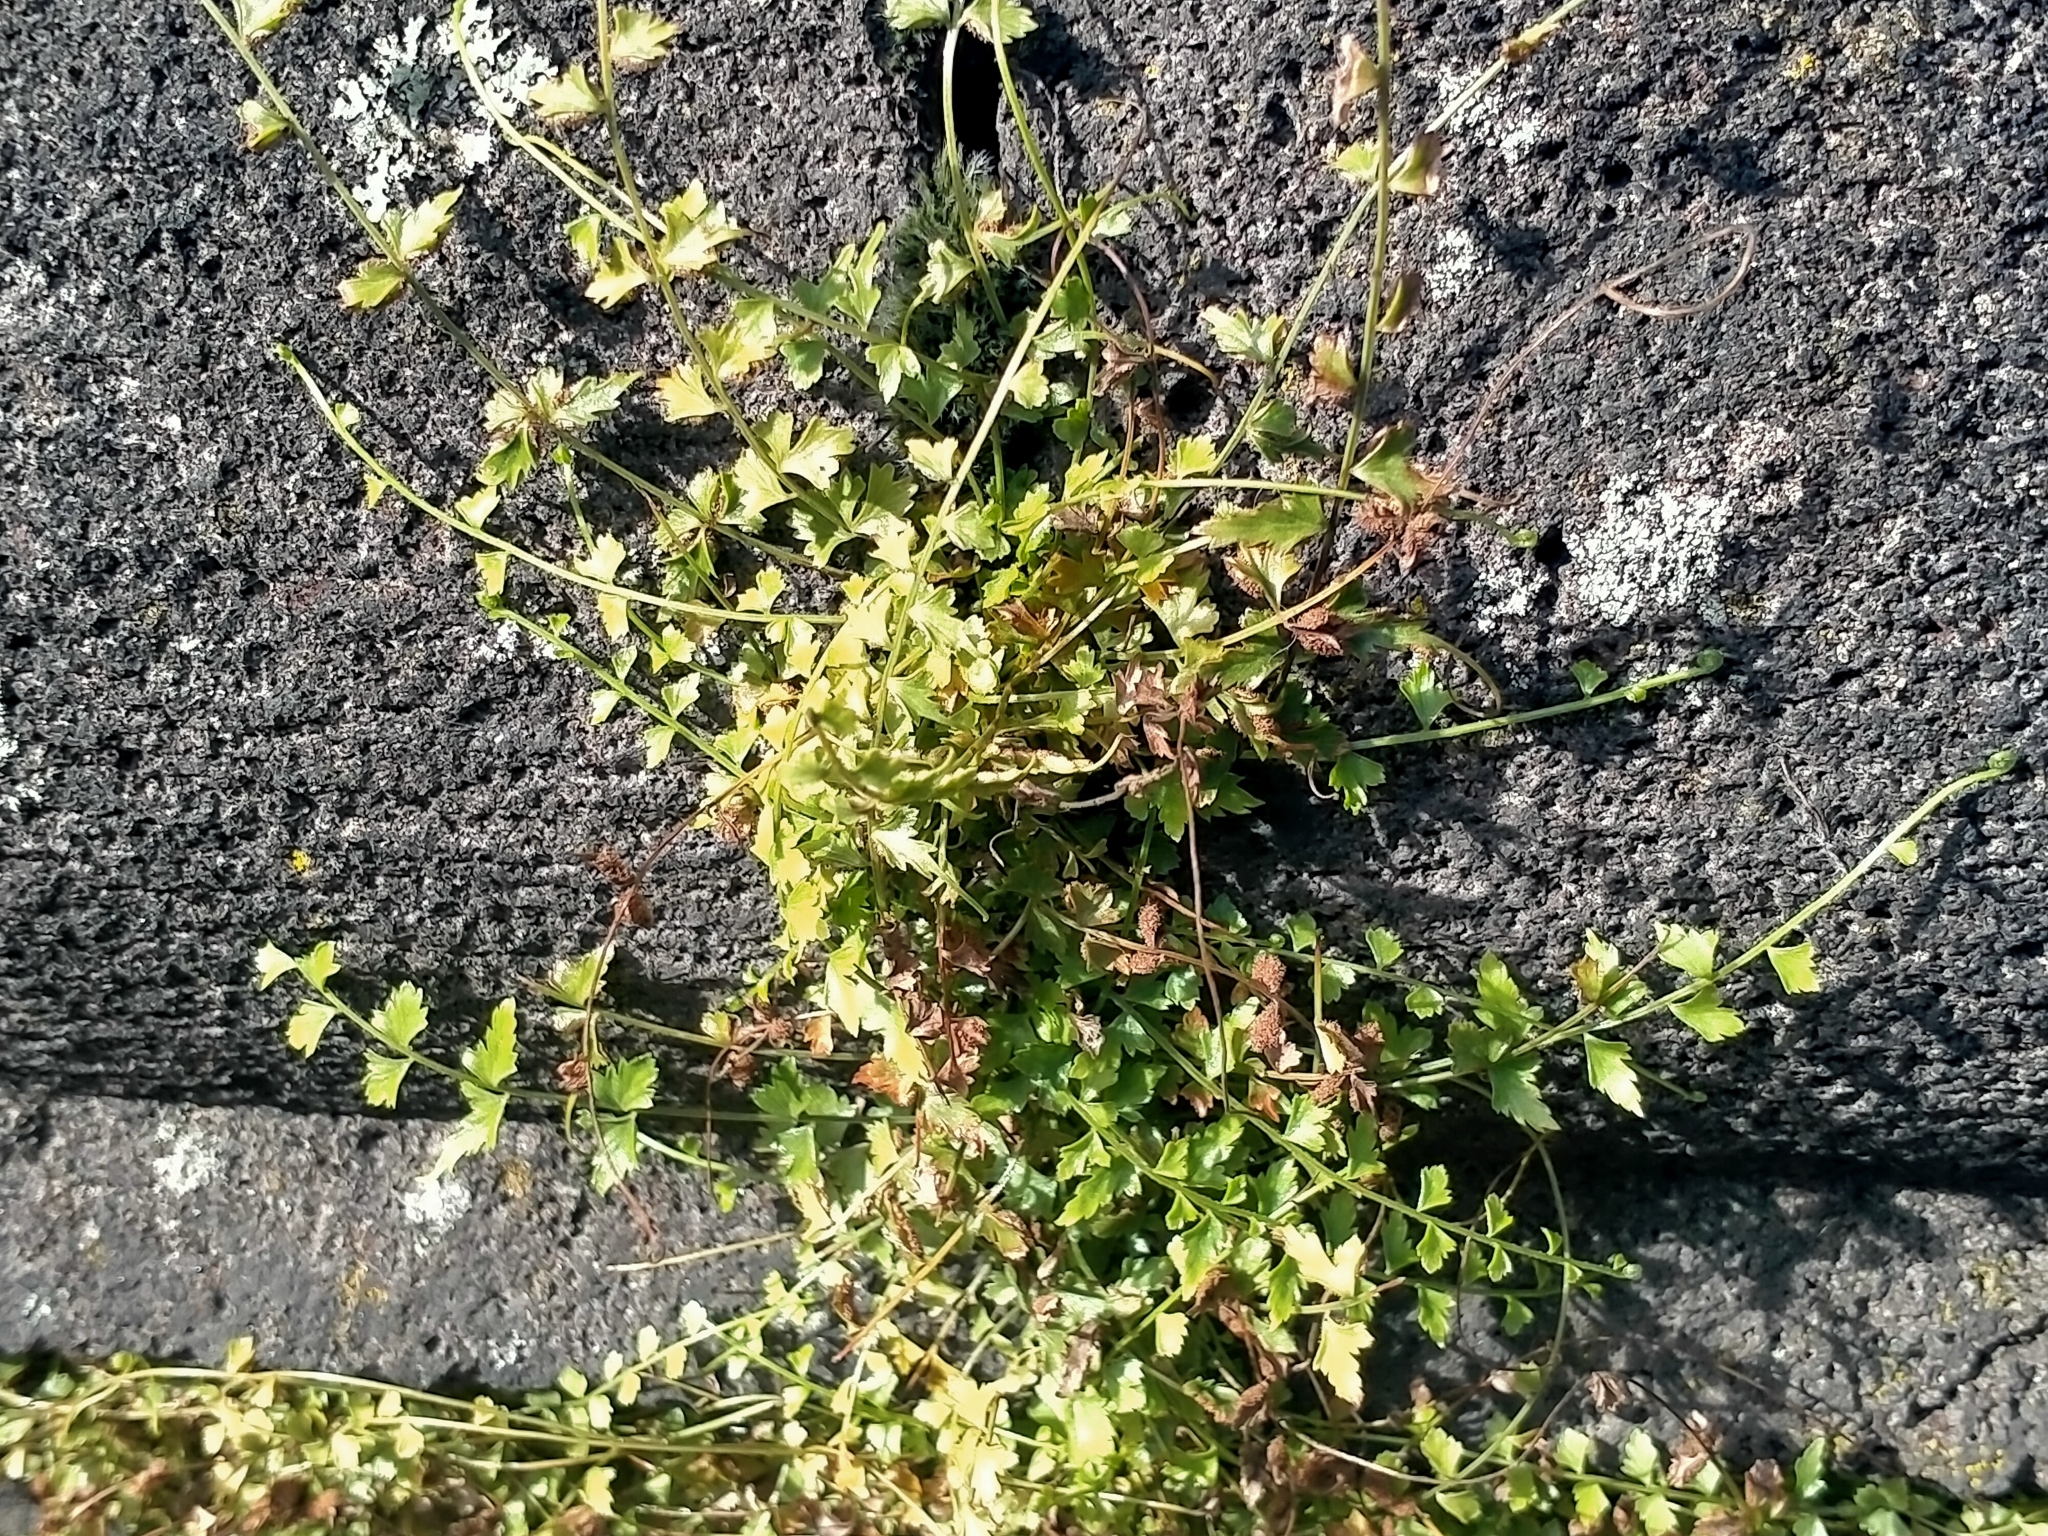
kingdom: Plantae
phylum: Tracheophyta
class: Polypodiopsida
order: Polypodiales
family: Aspleniaceae
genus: Asplenium
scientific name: Asplenium flabellifolium
